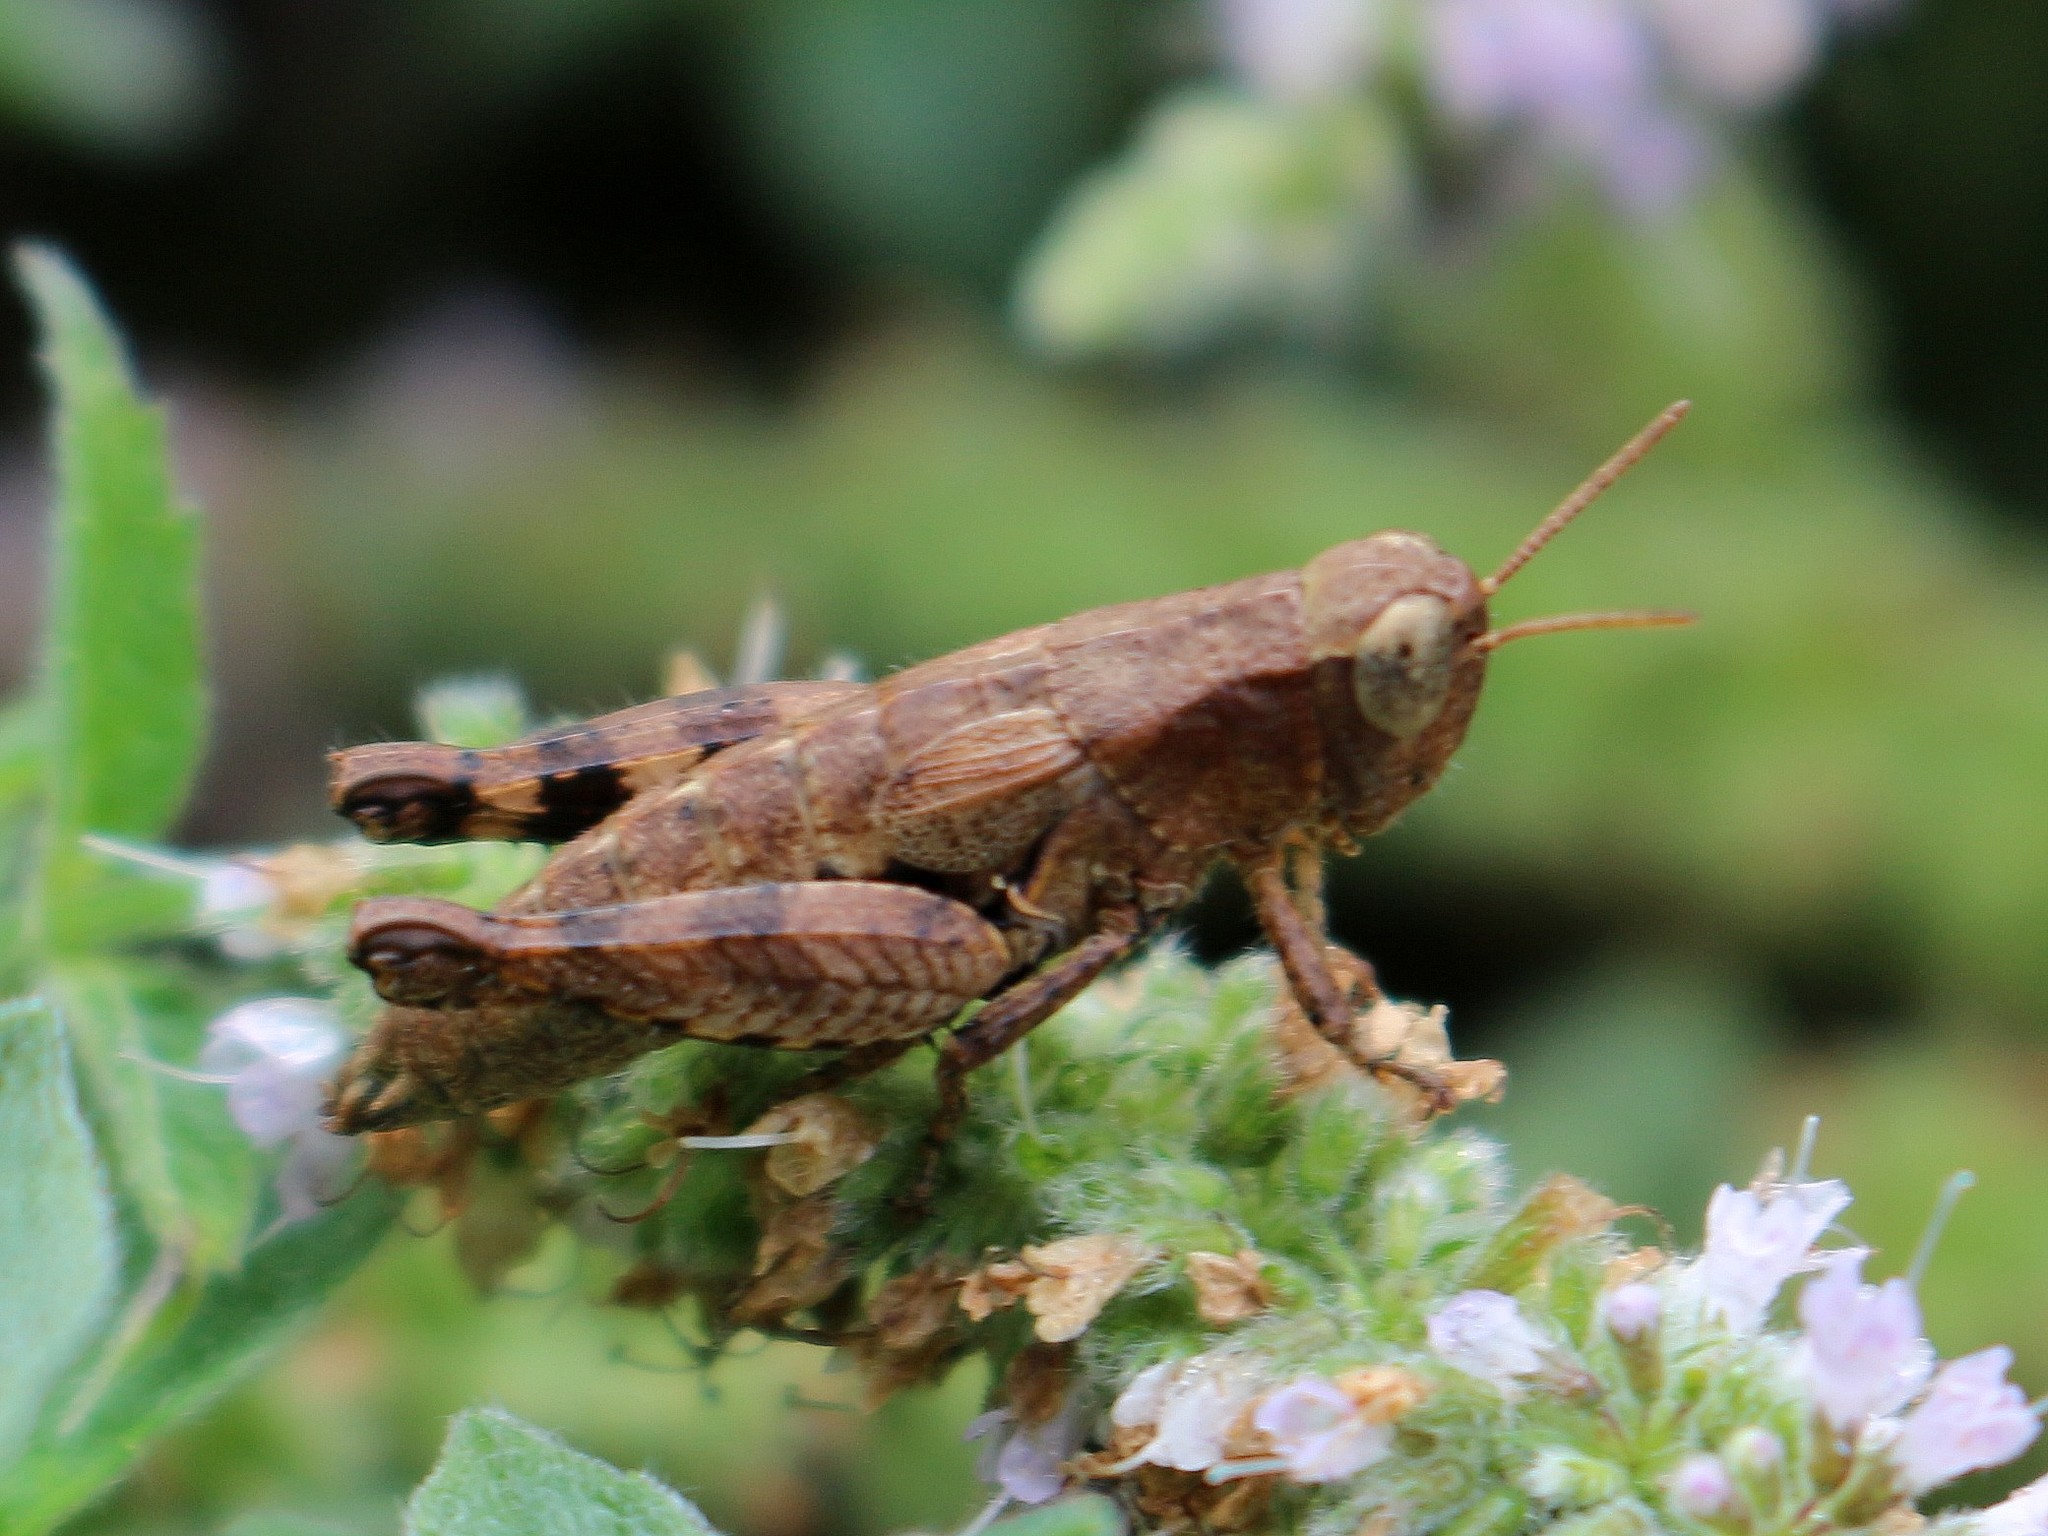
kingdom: Animalia
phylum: Arthropoda
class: Insecta
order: Orthoptera
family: Acrididae
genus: Pezotettix
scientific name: Pezotettix giornae
